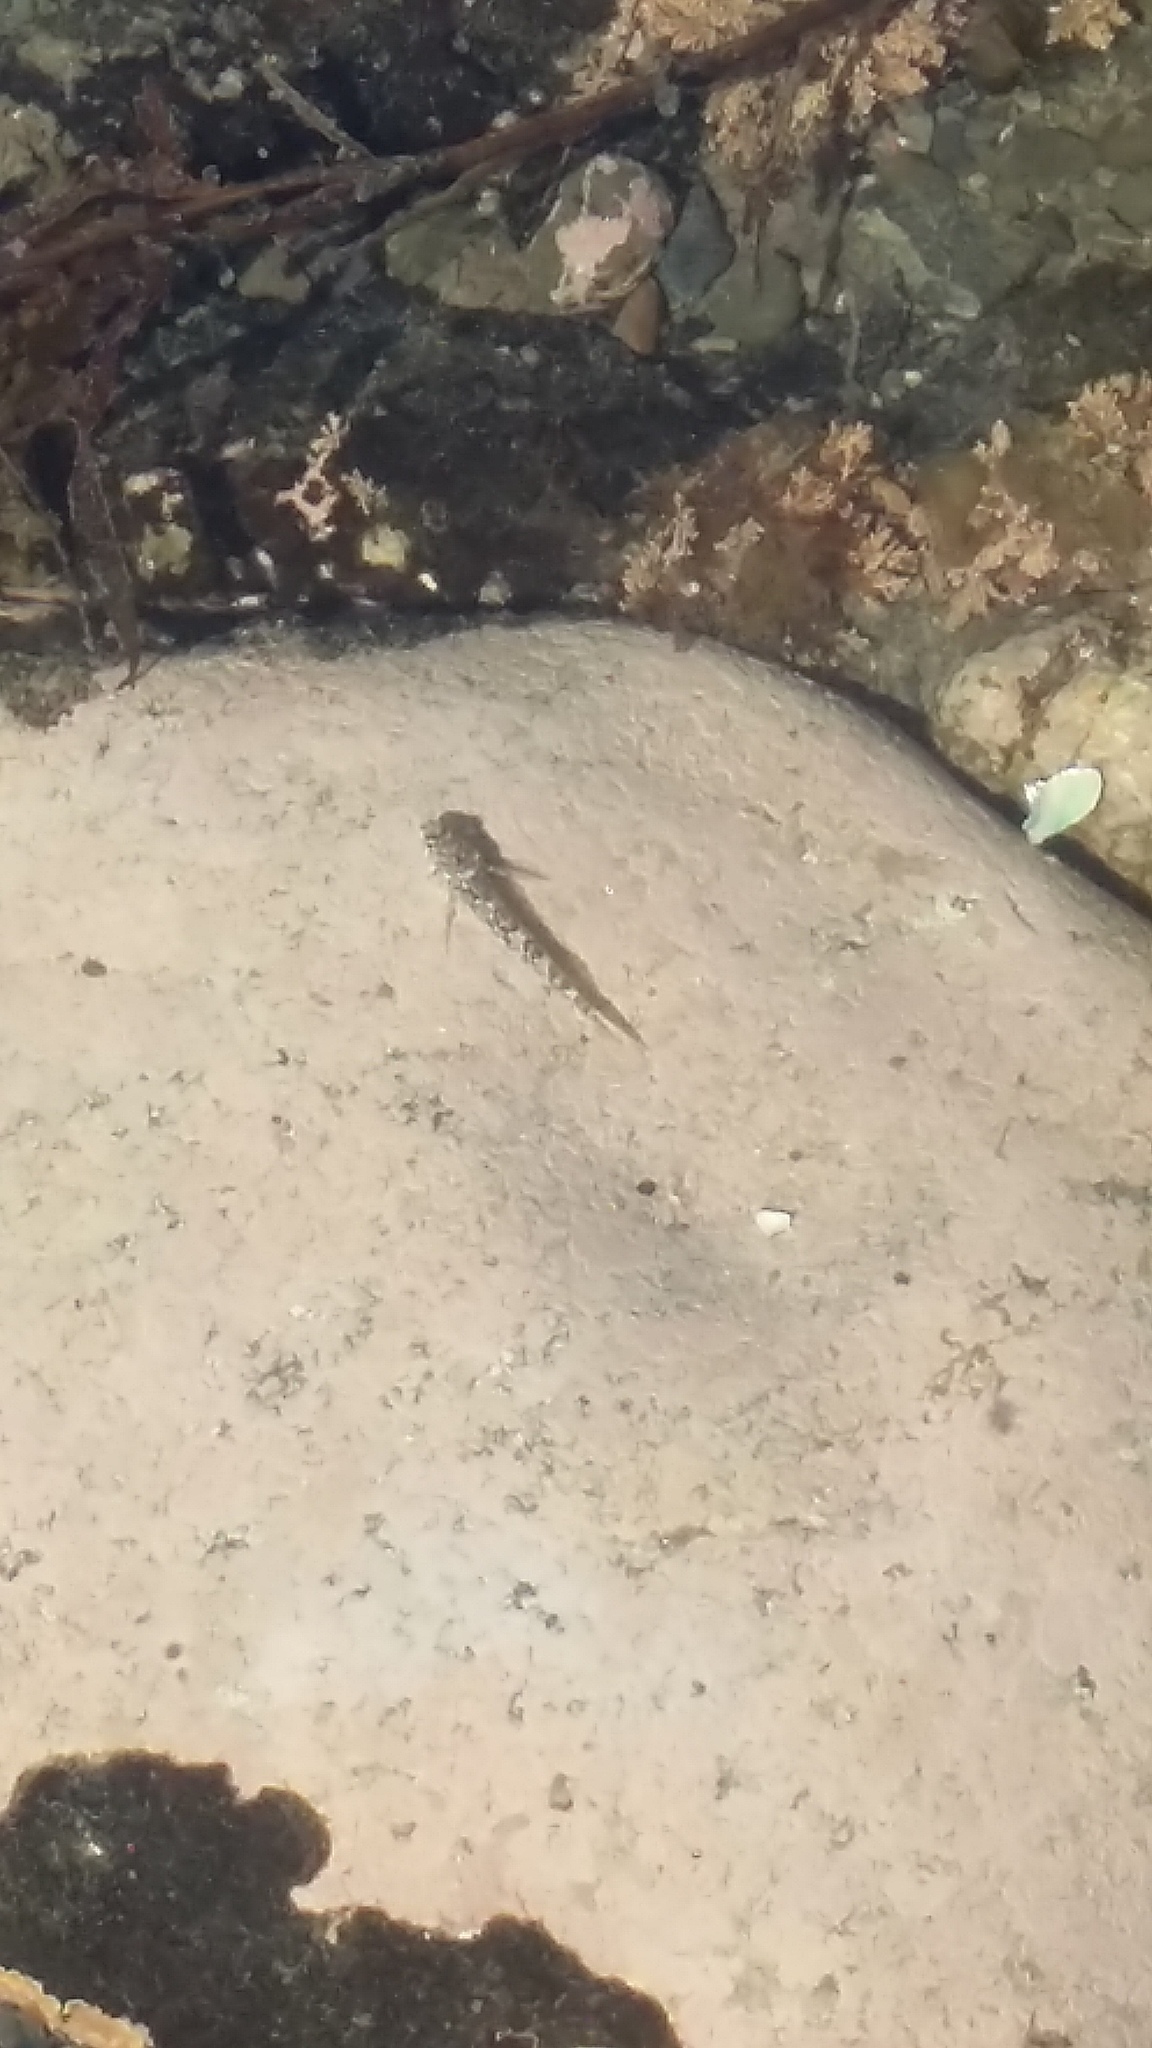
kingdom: Animalia
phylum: Chordata
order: Perciformes
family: Tripterygiidae
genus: Bellapiscis
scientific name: Bellapiscis medius
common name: Twister
